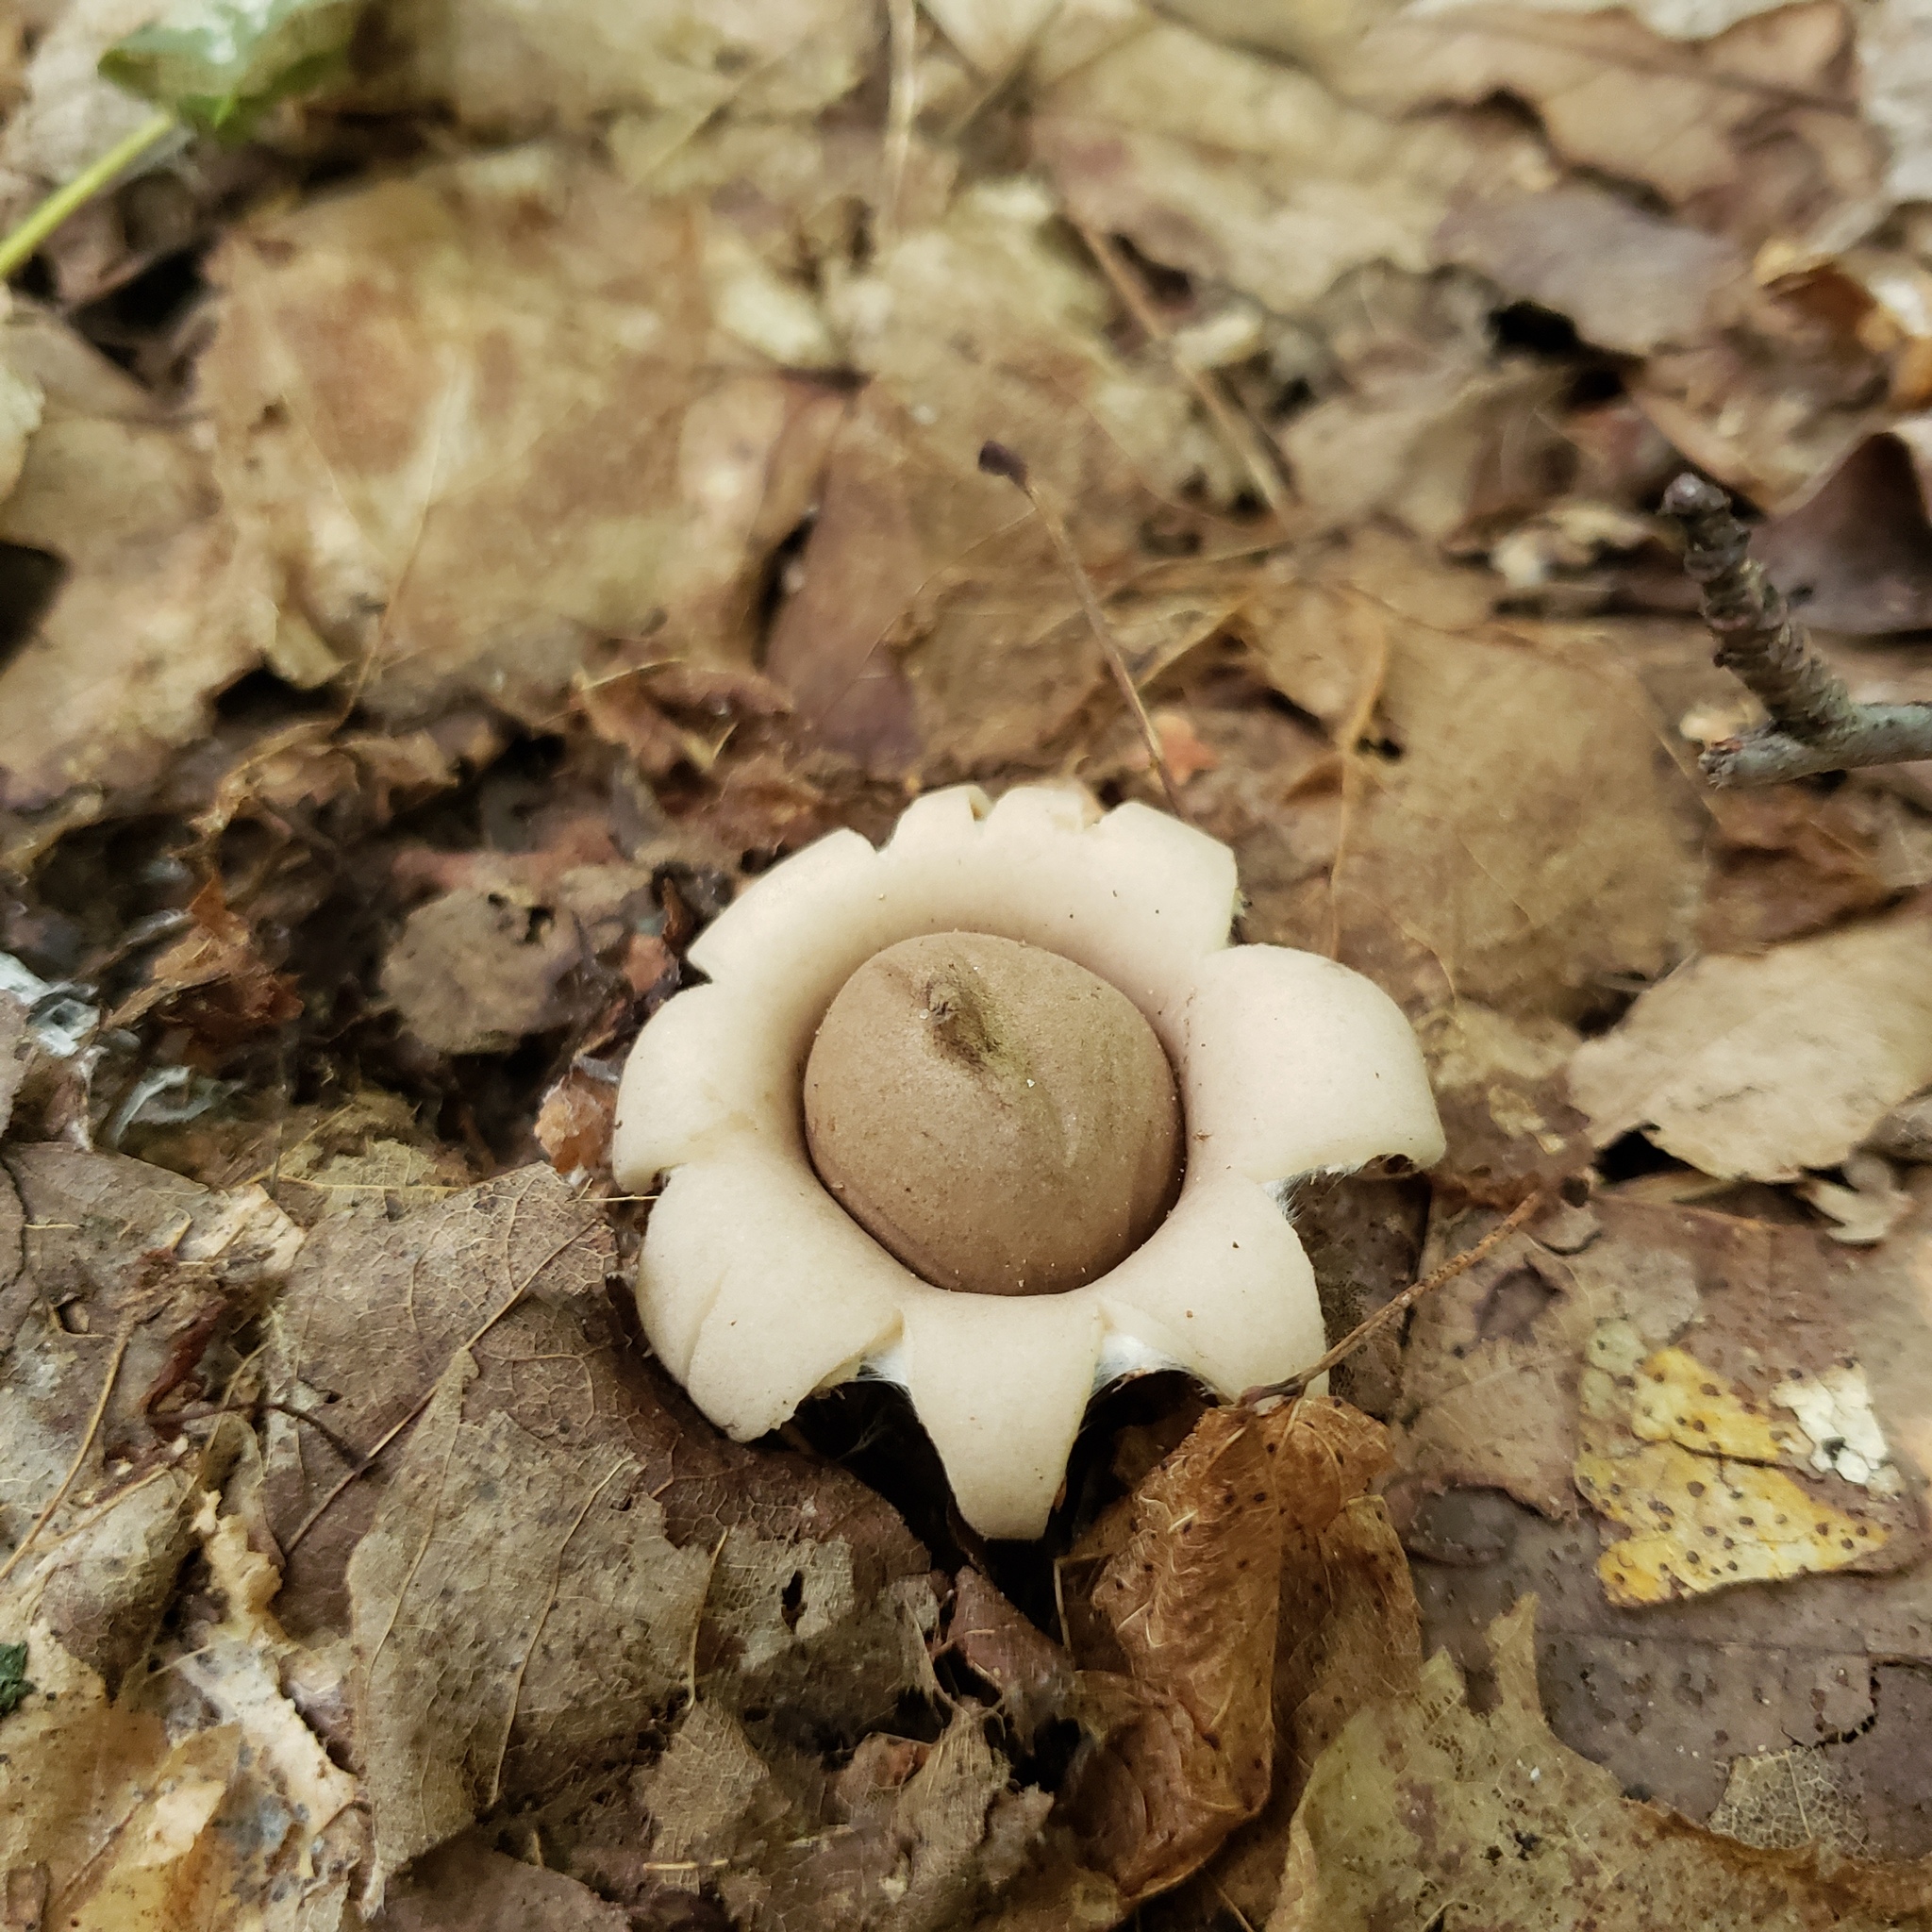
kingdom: Fungi
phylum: Basidiomycota
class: Agaricomycetes
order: Geastrales
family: Geastraceae
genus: Geastrum
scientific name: Geastrum saccatum
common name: Rounded earthstar
